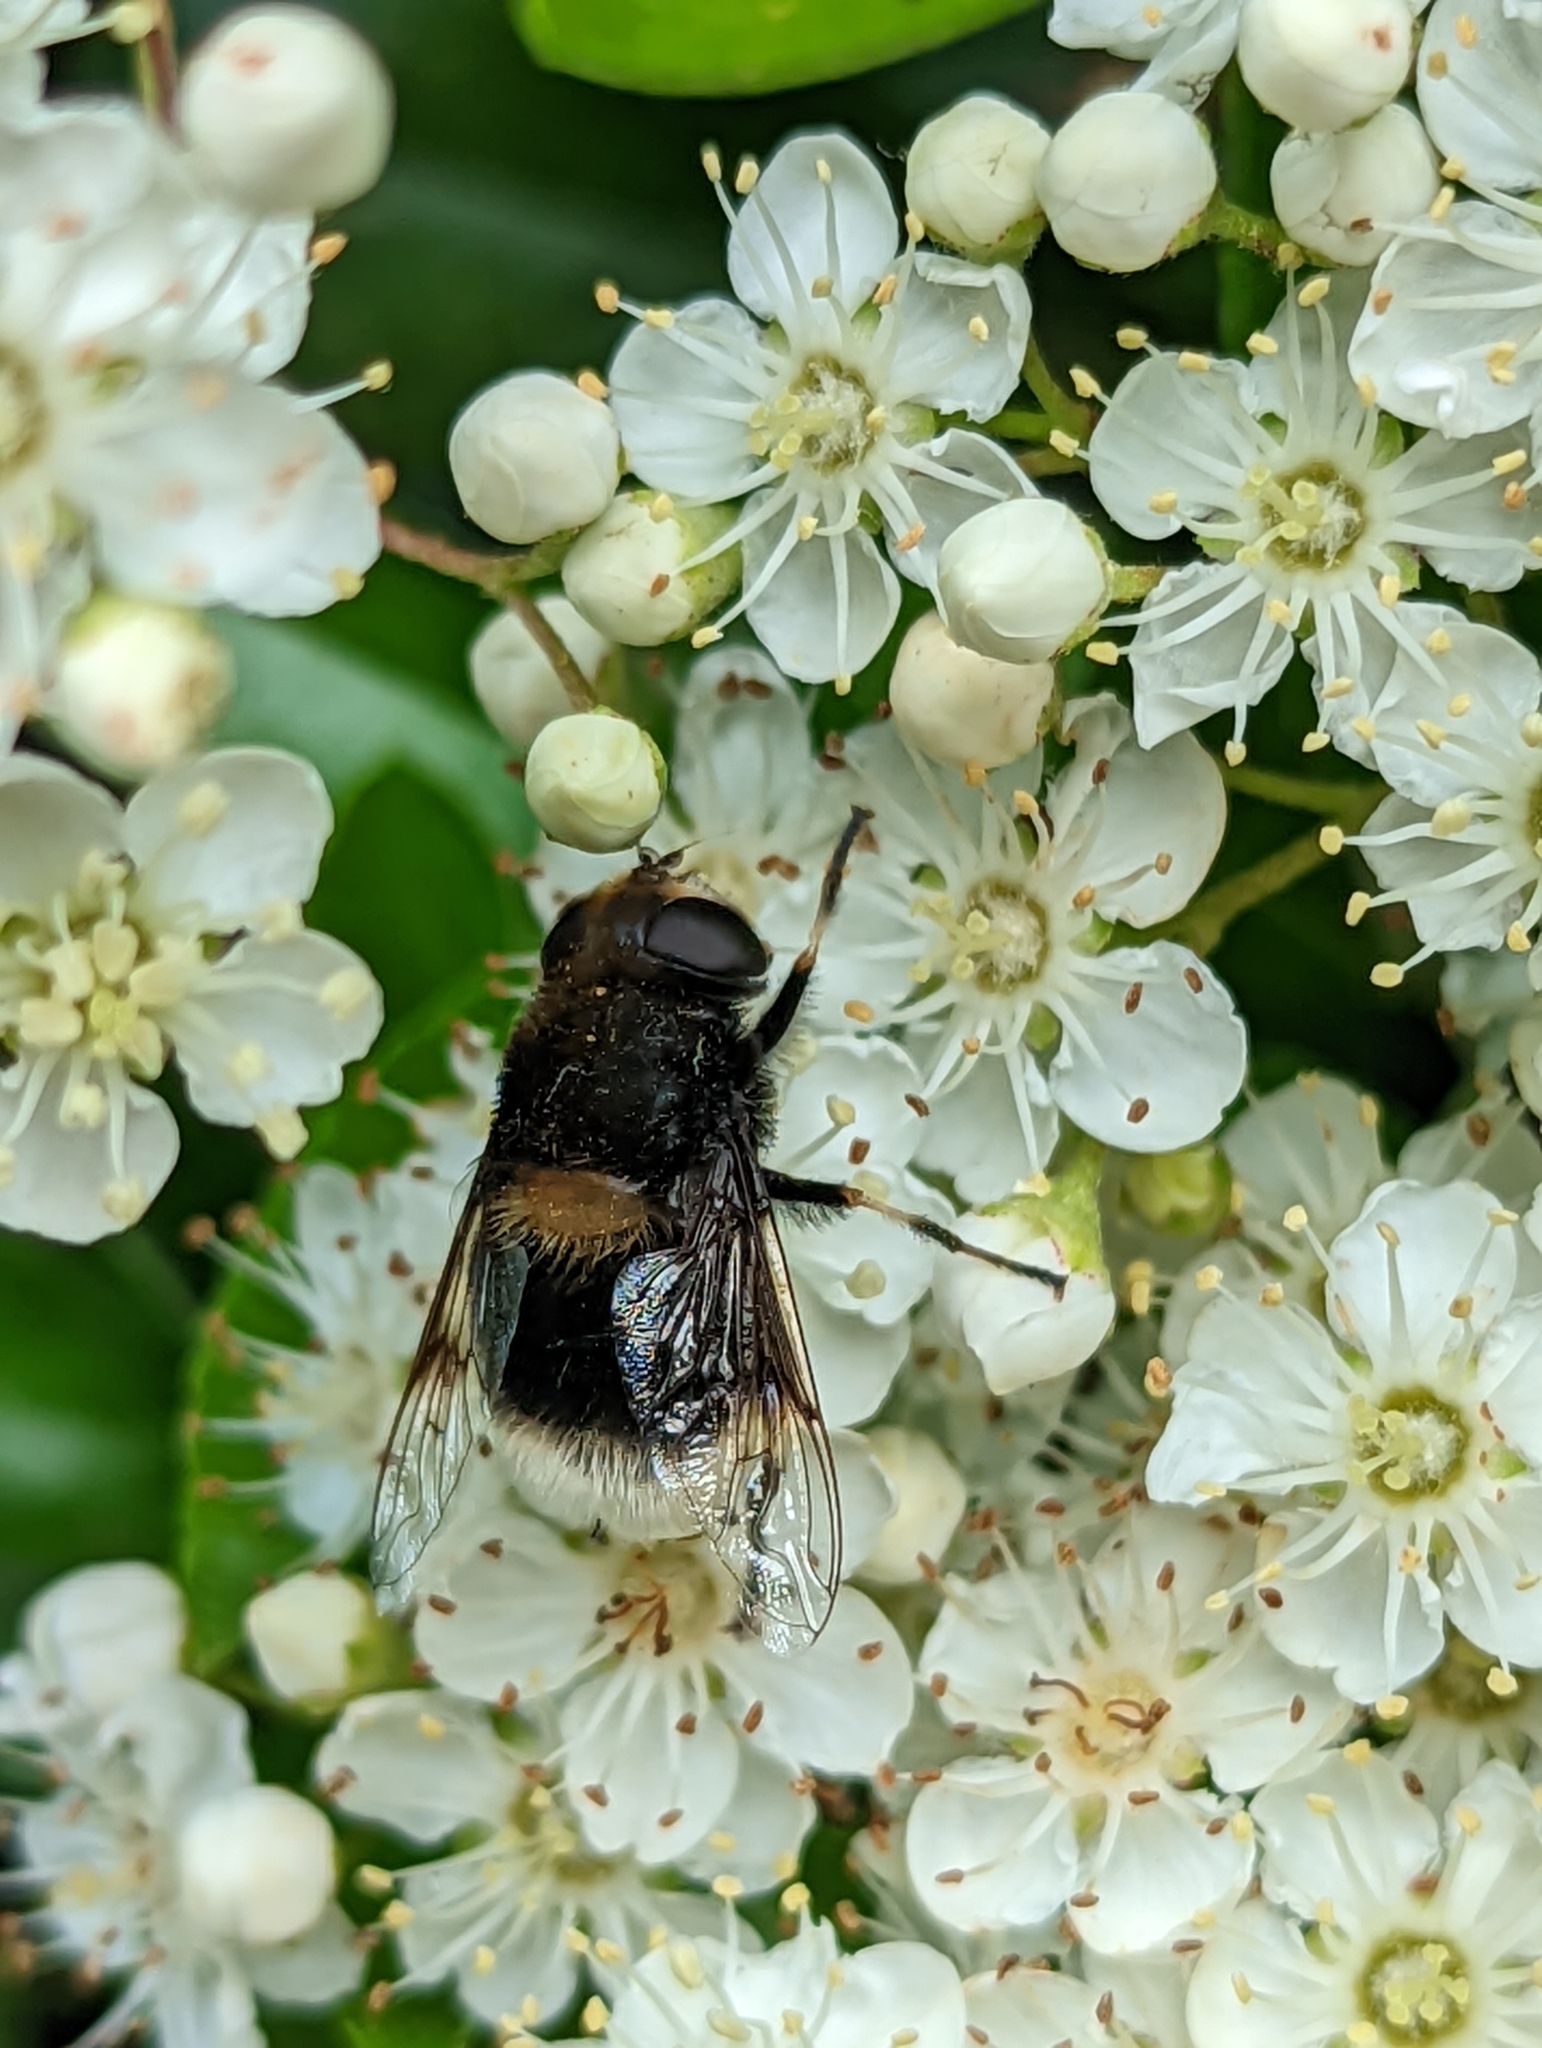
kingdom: Animalia
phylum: Arthropoda
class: Insecta
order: Diptera
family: Syrphidae
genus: Eristalis
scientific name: Eristalis intricaria
